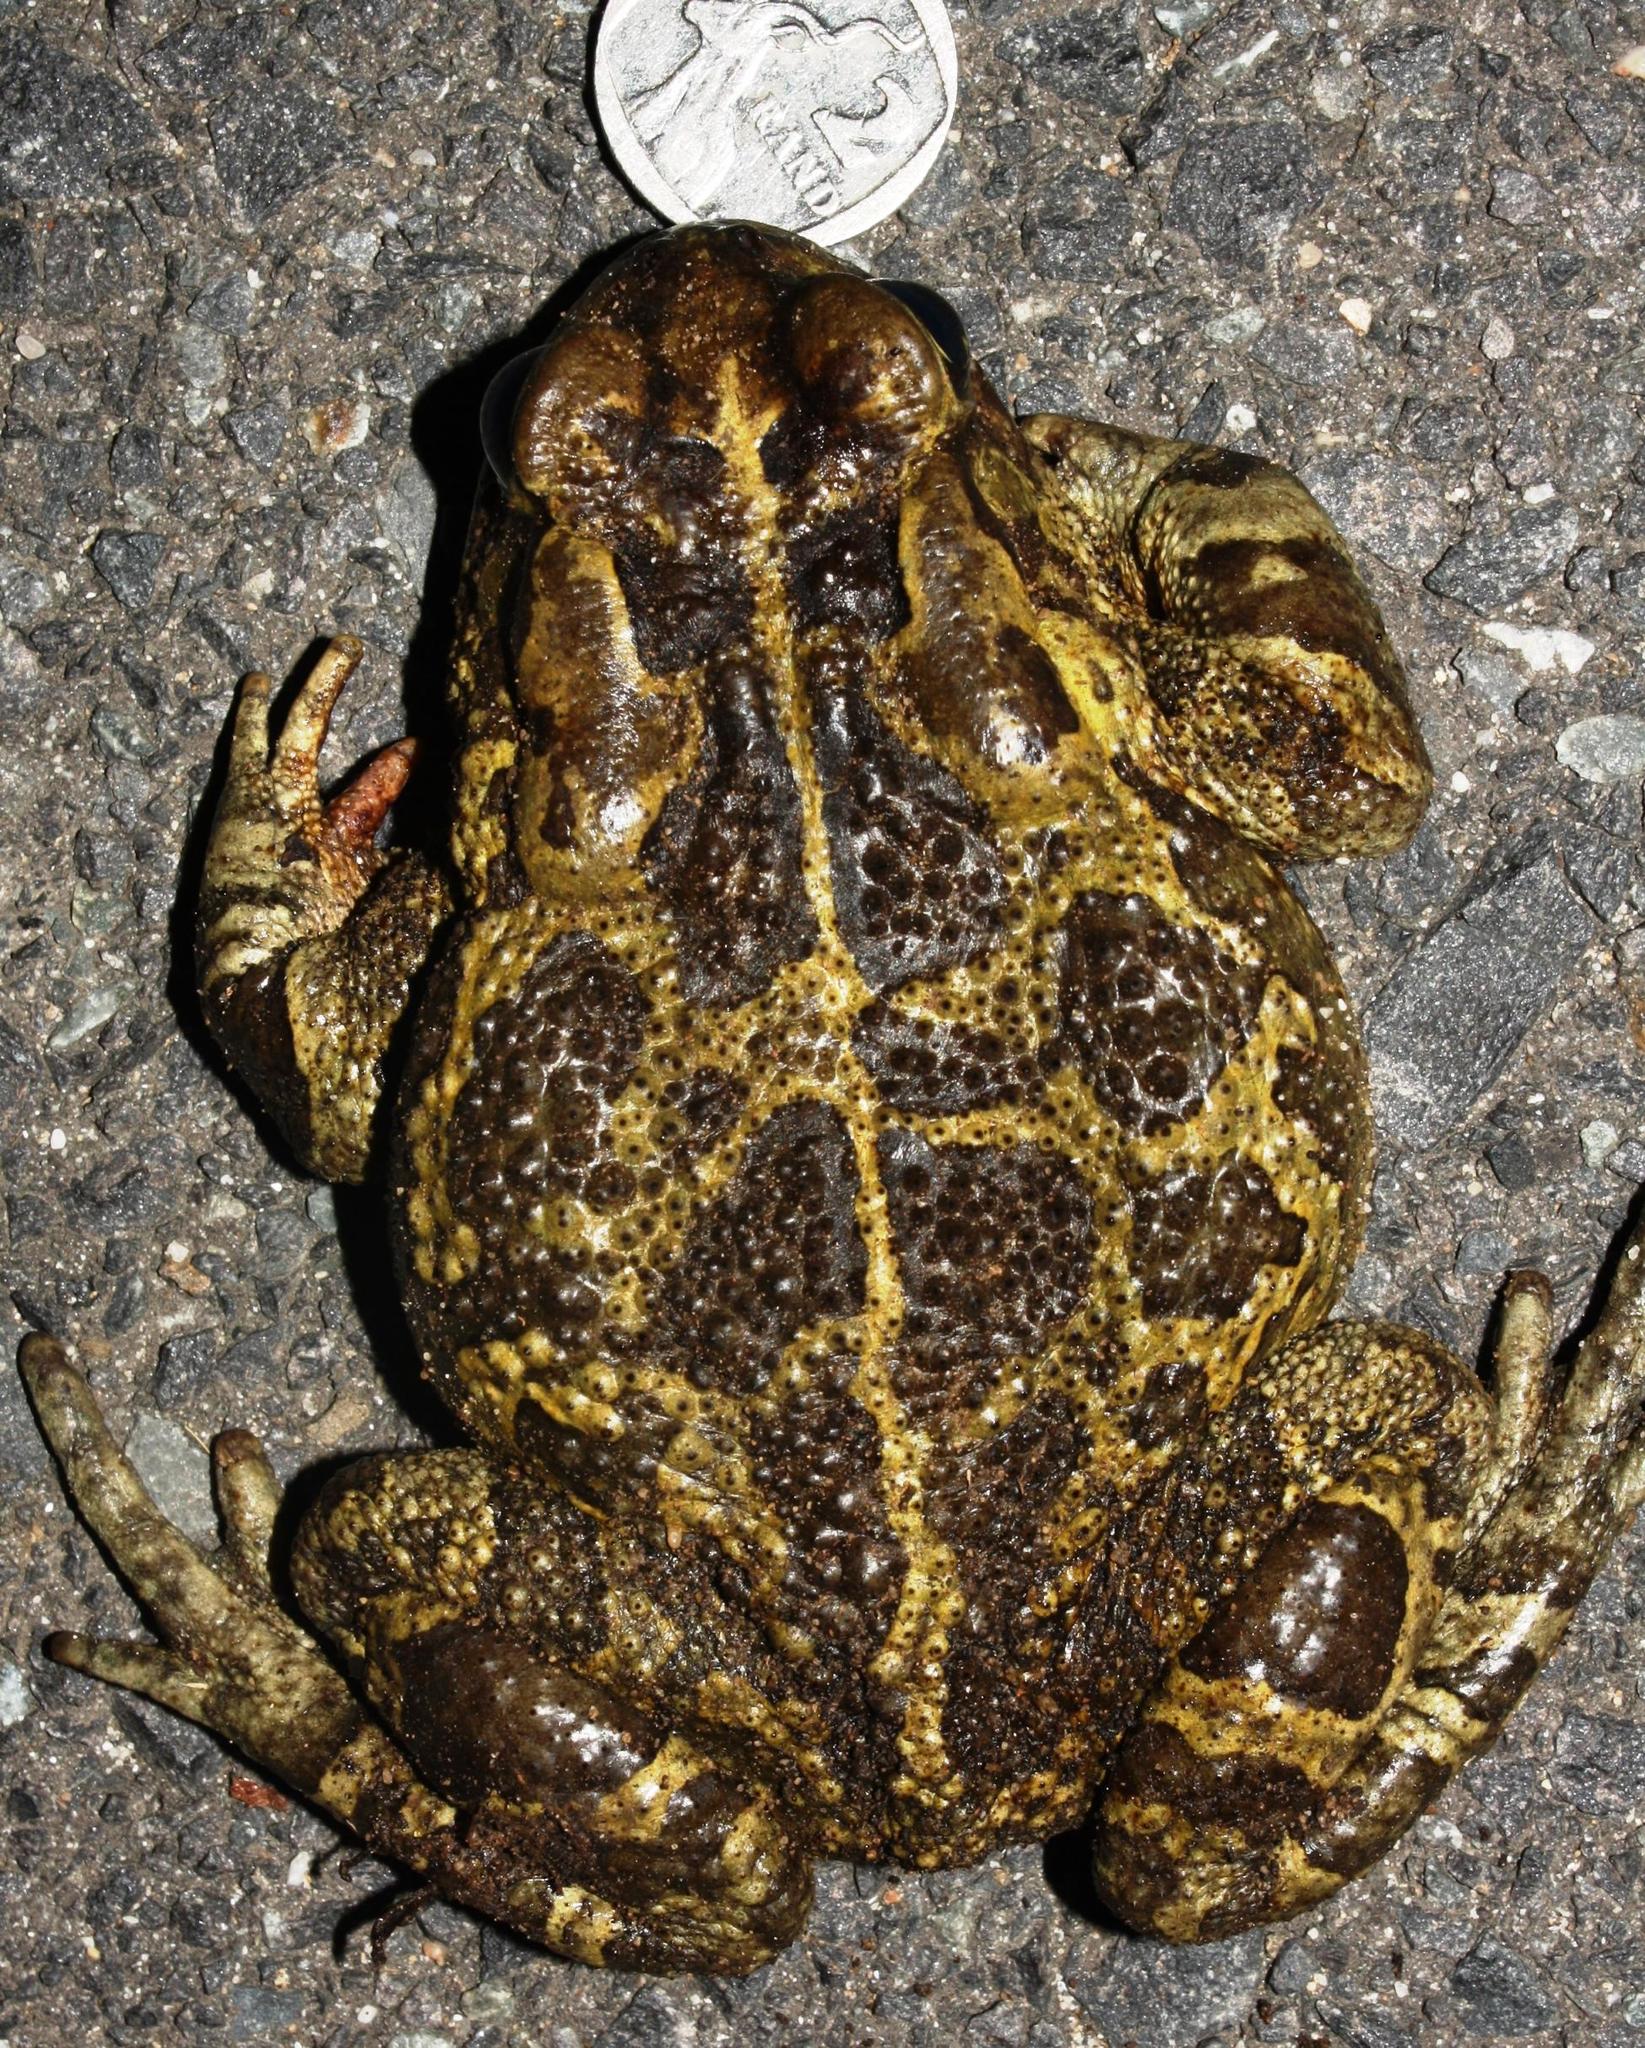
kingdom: Animalia
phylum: Chordata
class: Amphibia
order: Anura
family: Bufonidae
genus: Sclerophrys
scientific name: Sclerophrys pantherina
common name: Panther toad
